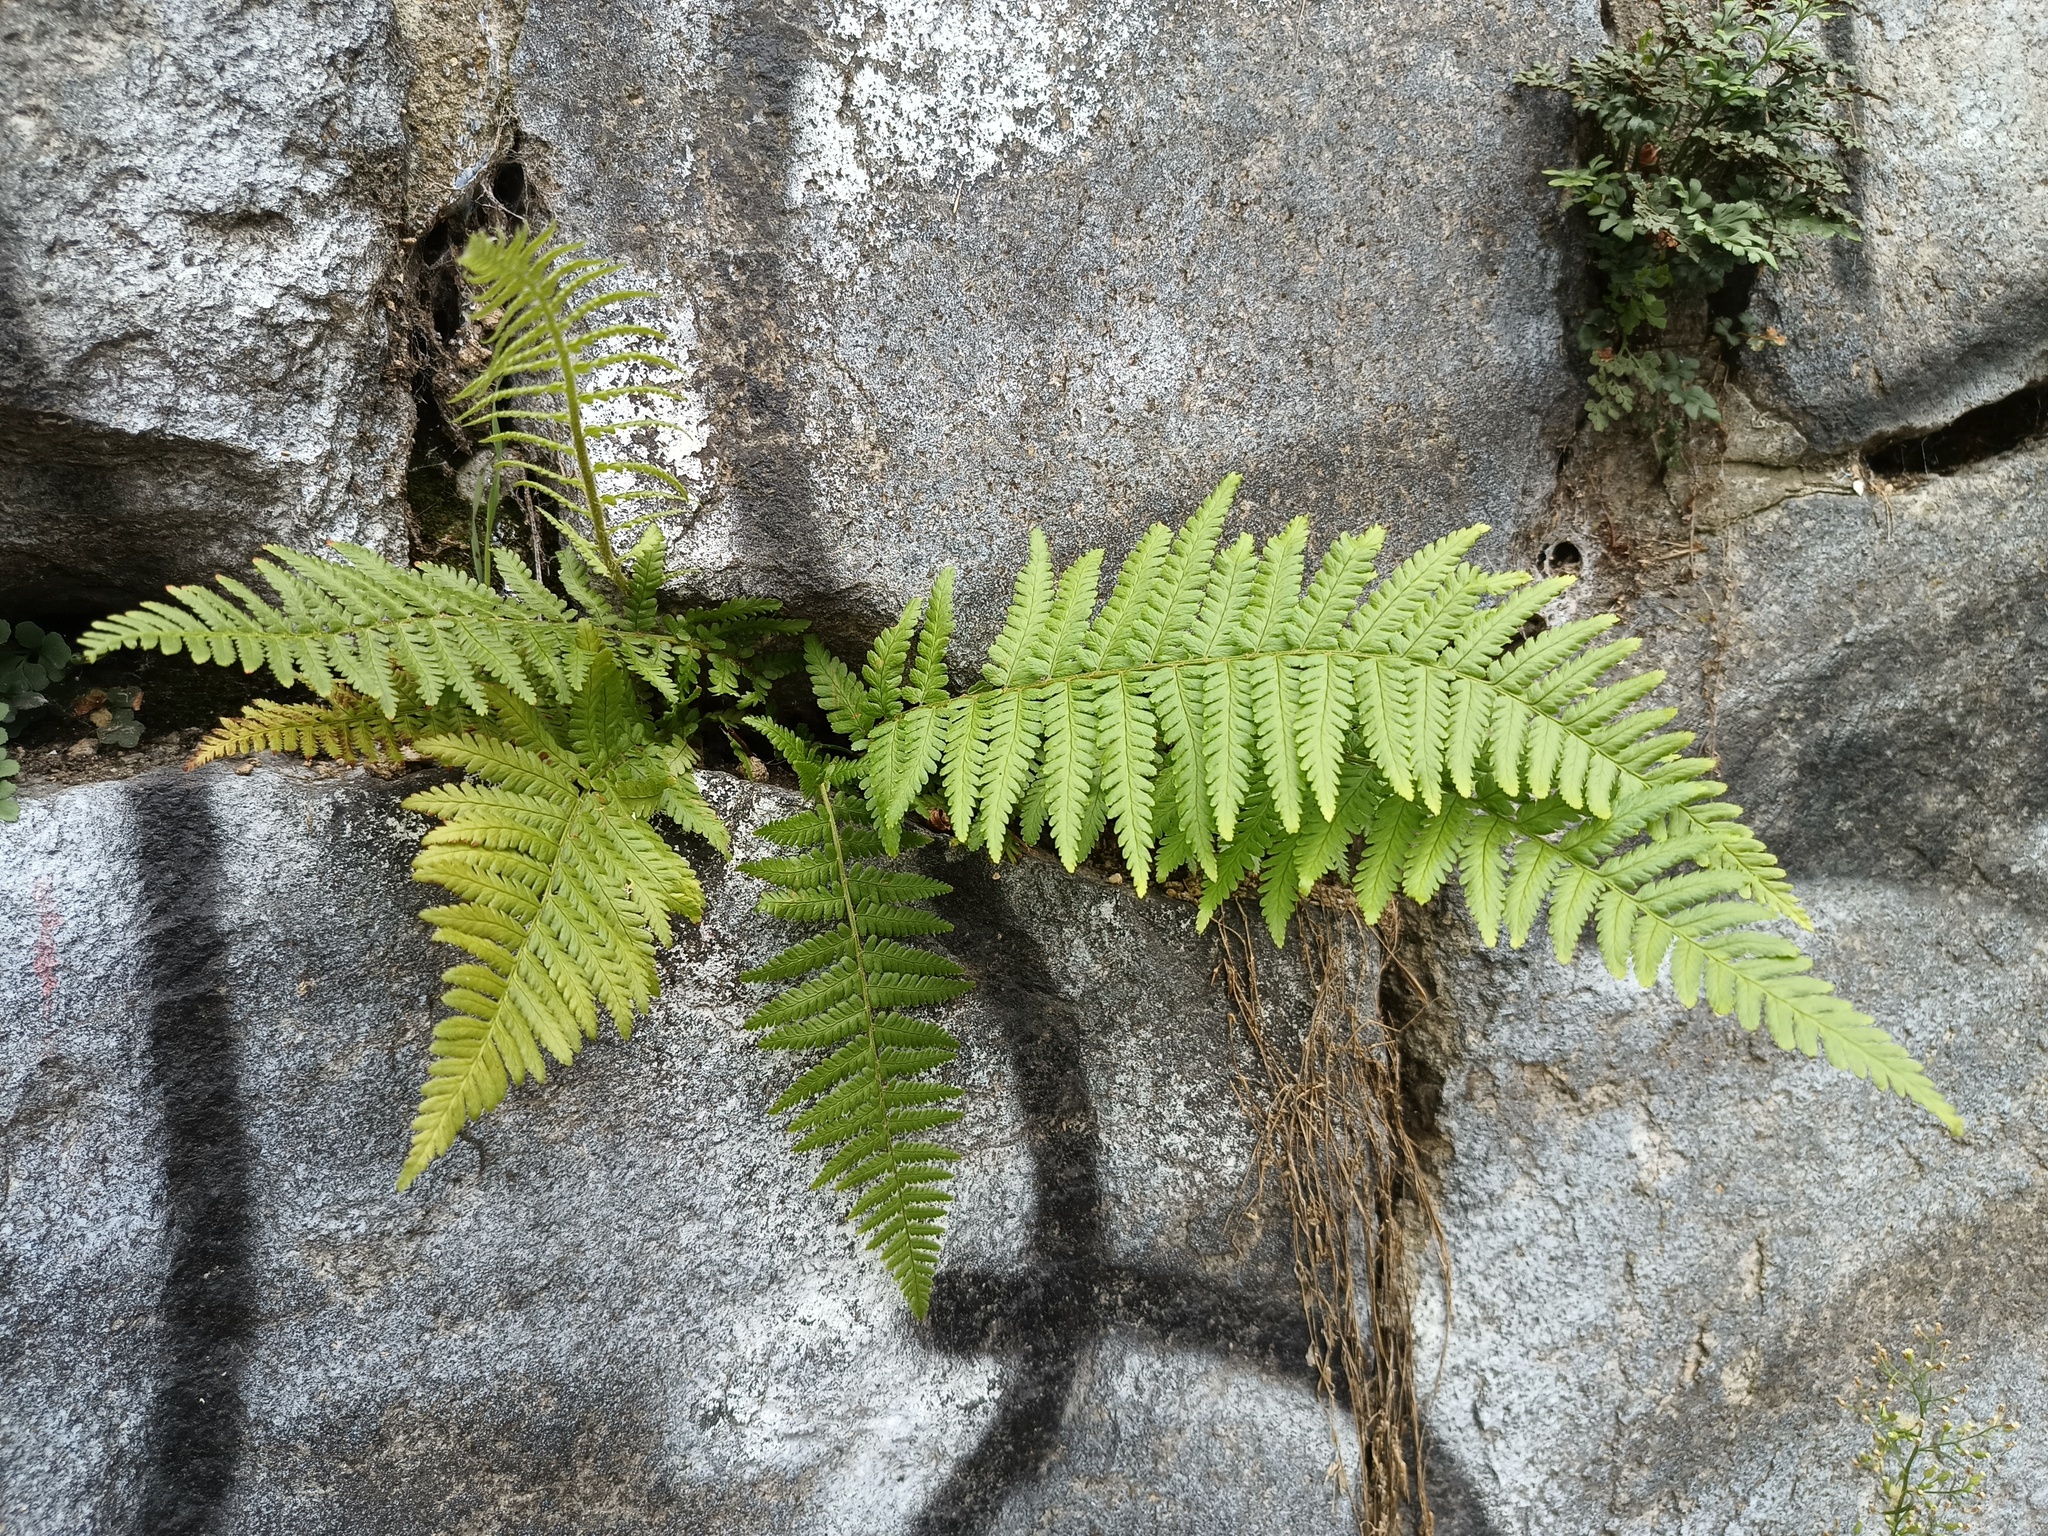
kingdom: Plantae
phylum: Tracheophyta
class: Polypodiopsida
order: Polypodiales
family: Dryopteridaceae
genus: Dryopteris
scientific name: Dryopteris filix-mas
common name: Male fern
